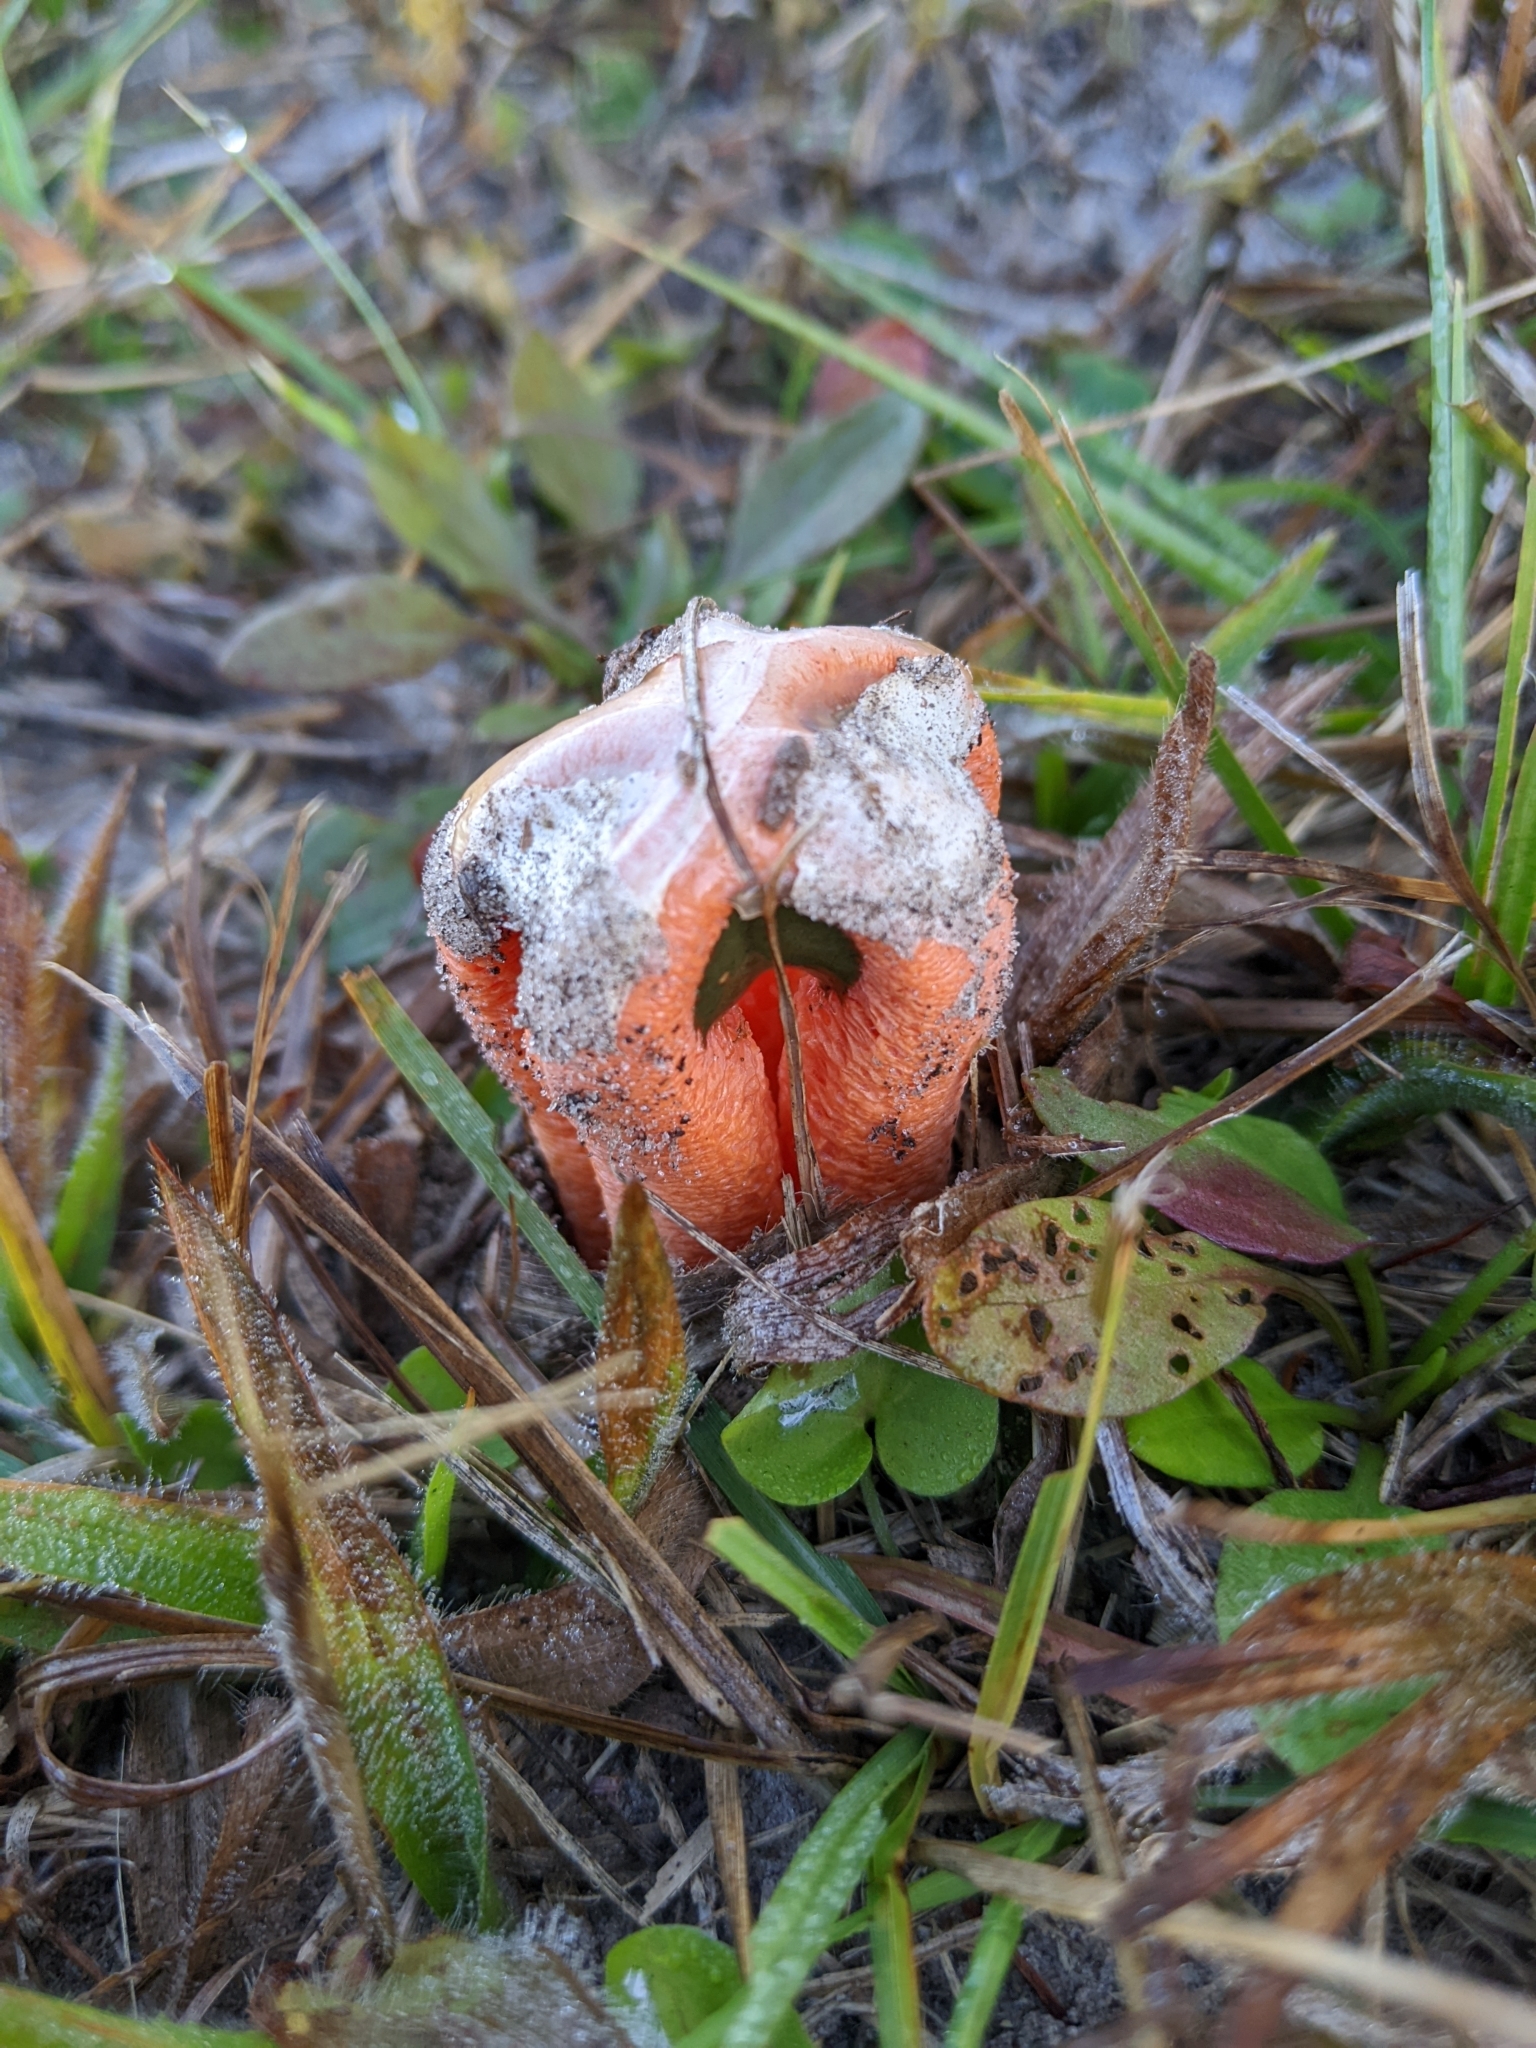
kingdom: Fungi
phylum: Basidiomycota
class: Agaricomycetes
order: Phallales
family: Phallaceae
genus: Clathrus
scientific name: Clathrus columnatus
